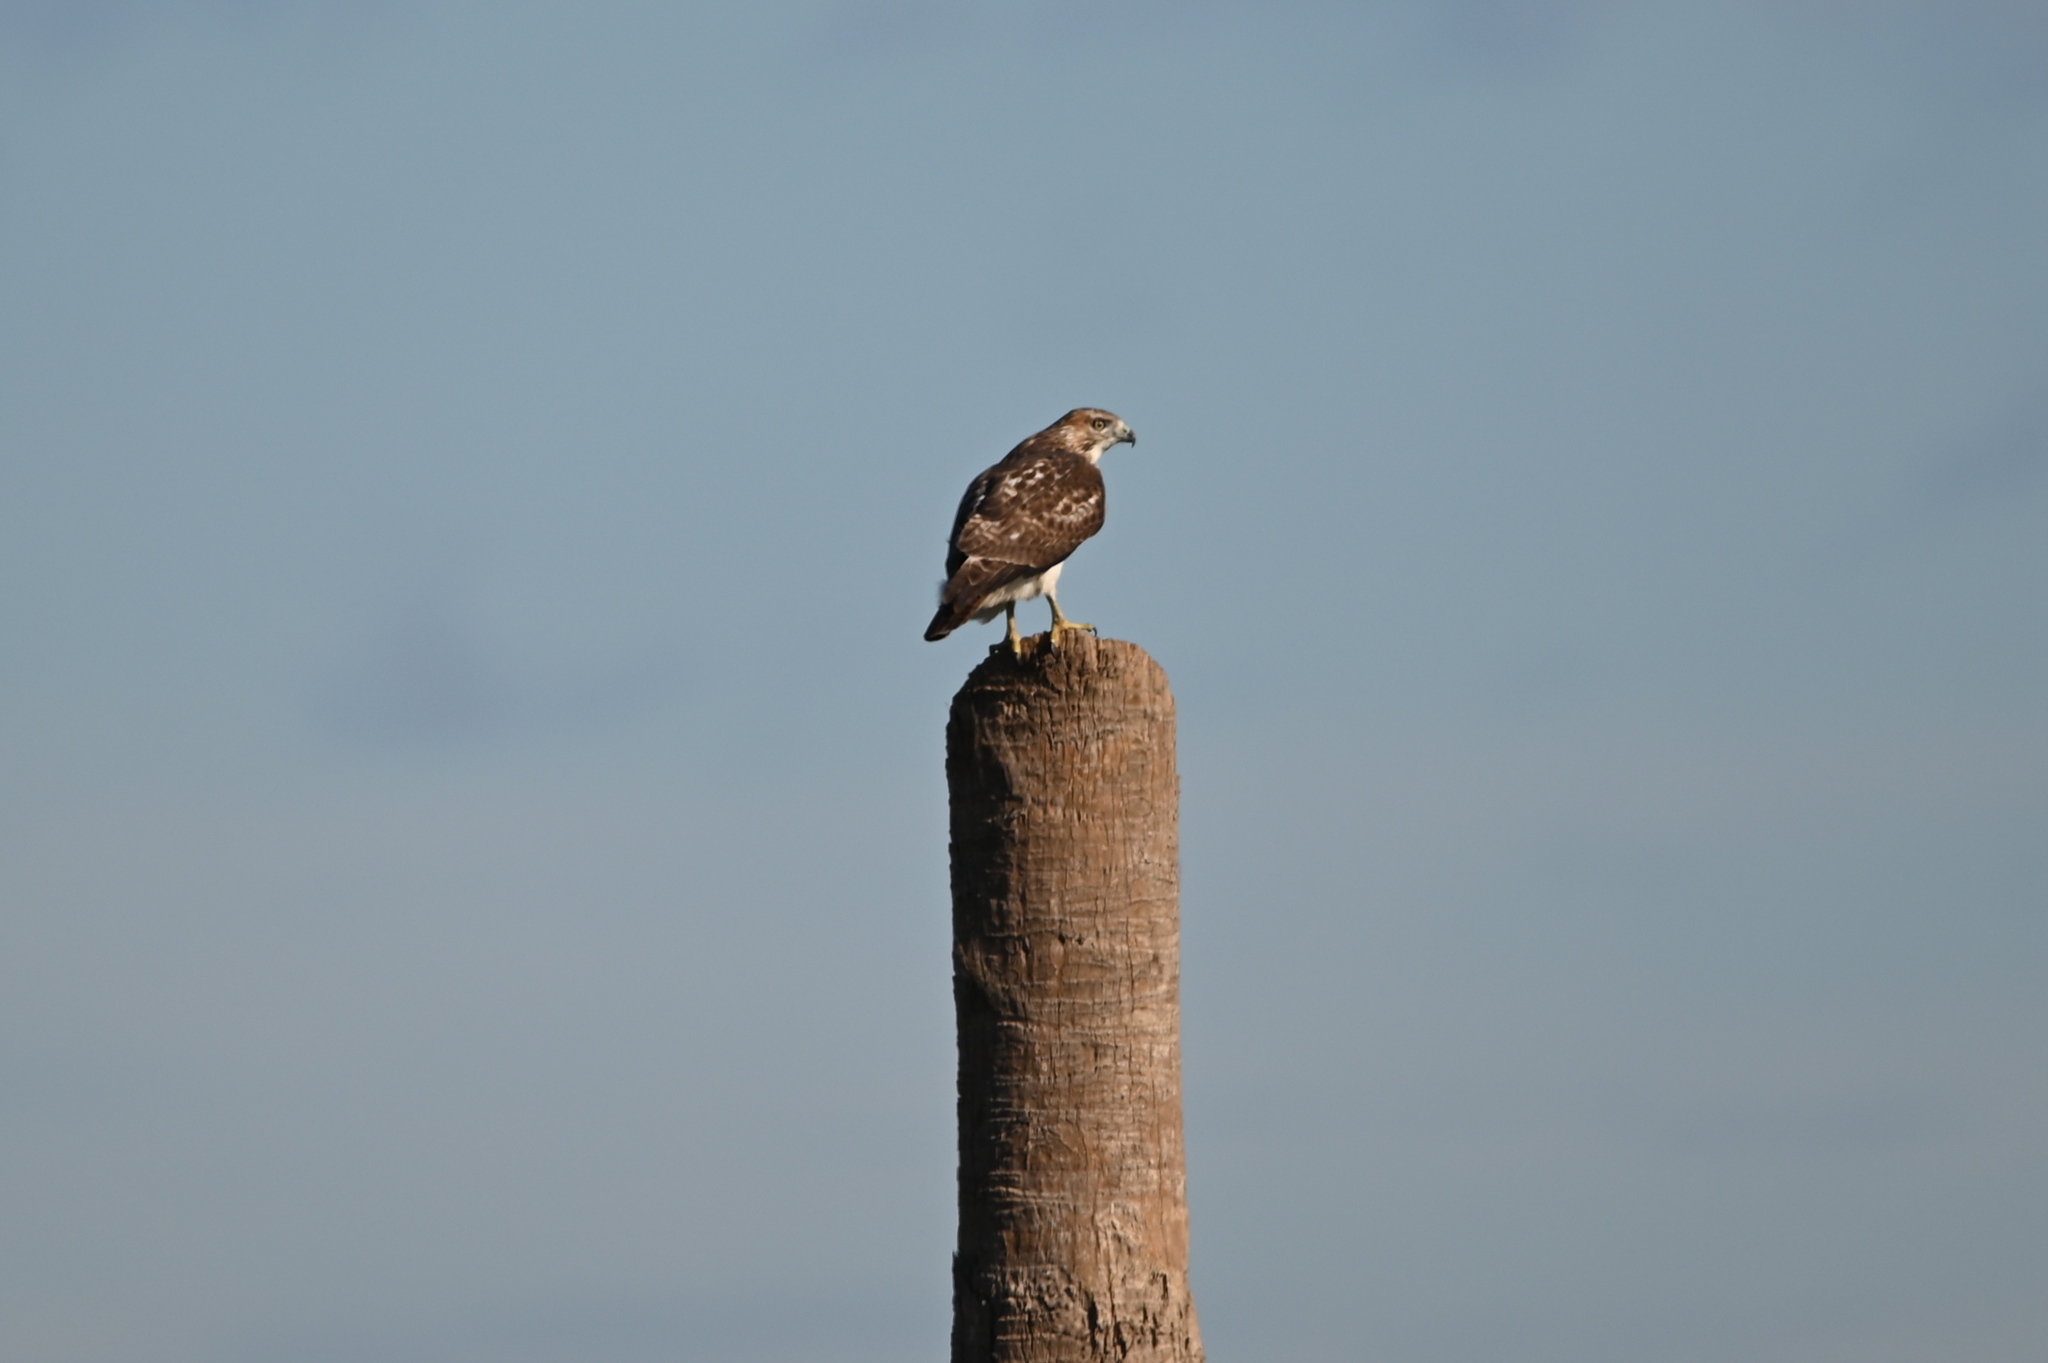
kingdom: Animalia
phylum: Chordata
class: Aves
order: Accipitriformes
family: Accipitridae
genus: Buteo
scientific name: Buteo jamaicensis
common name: Red-tailed hawk
